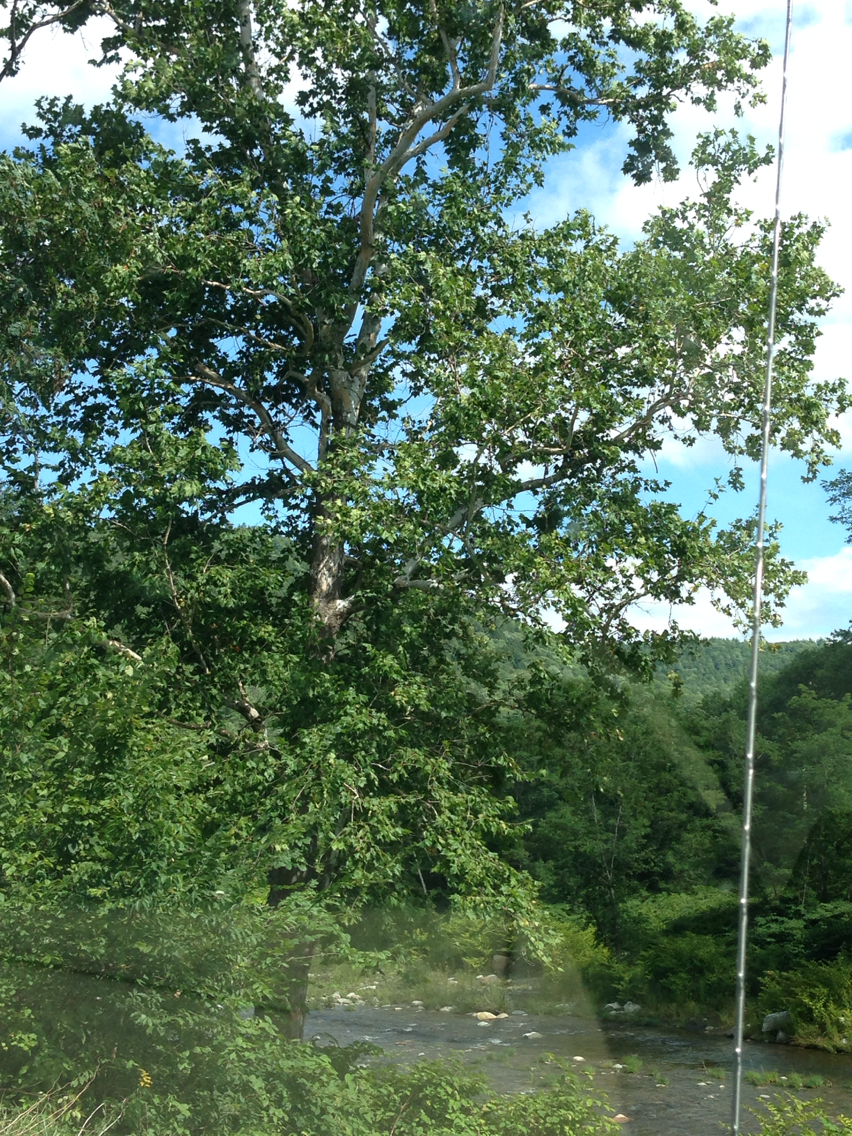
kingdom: Plantae
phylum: Tracheophyta
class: Magnoliopsida
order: Proteales
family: Platanaceae
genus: Platanus
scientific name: Platanus occidentalis
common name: American sycamore
